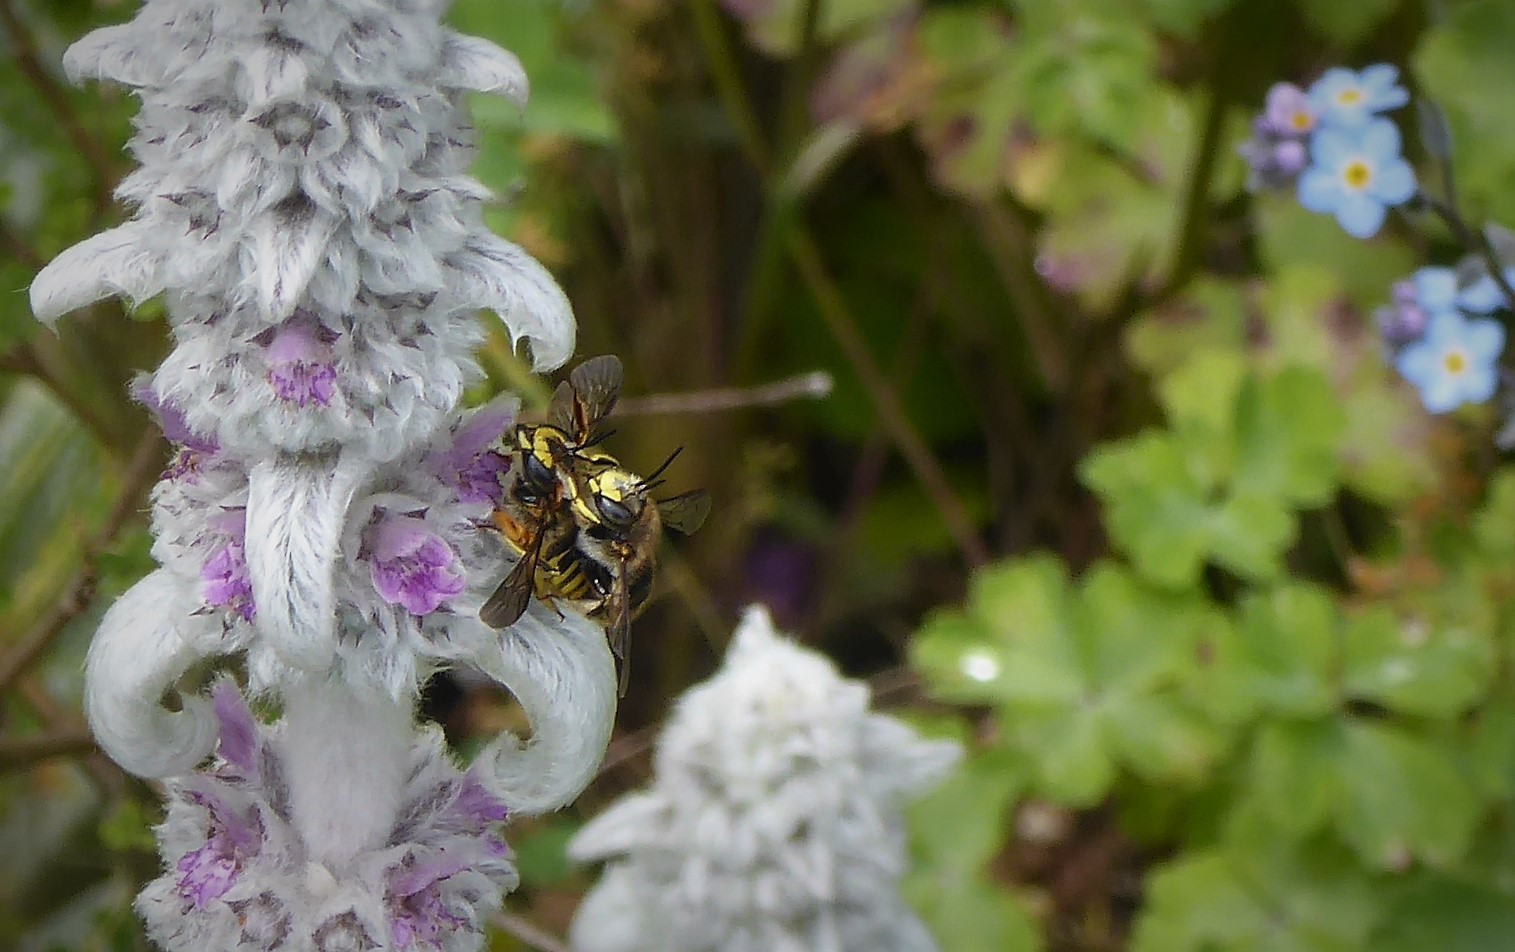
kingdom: Animalia
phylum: Arthropoda
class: Insecta
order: Hymenoptera
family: Megachilidae
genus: Anthidium
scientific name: Anthidium manicatum
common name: Wool carder bee
